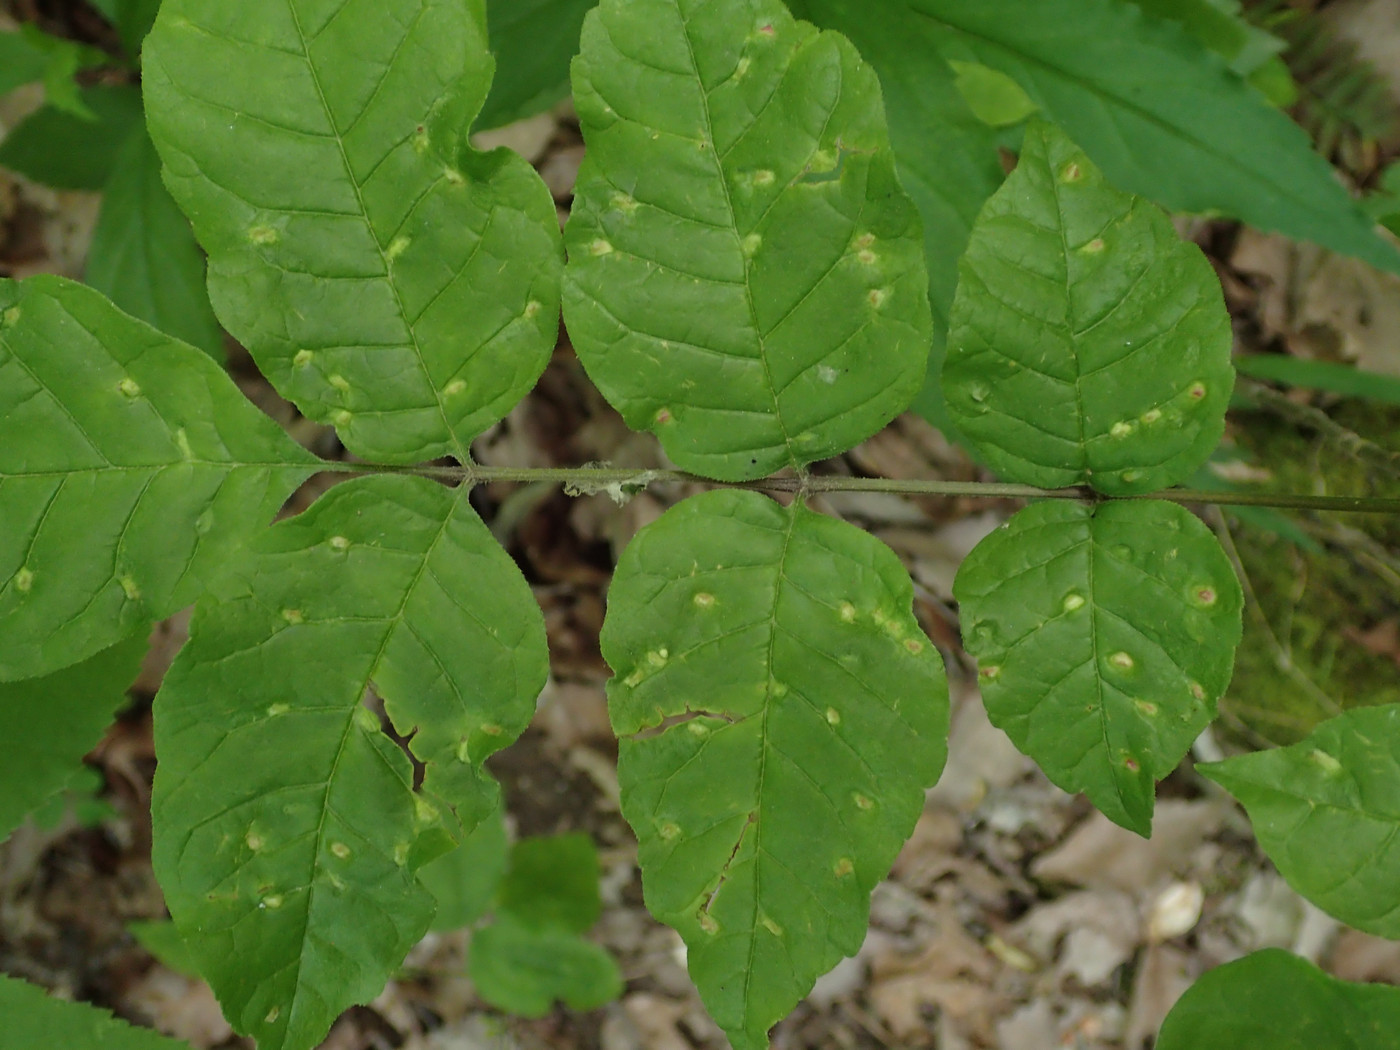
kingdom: Animalia
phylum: Arthropoda
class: Arachnida
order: Trombidiformes
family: Eriophyidae
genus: Aceria
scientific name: Aceria fraxinicola
